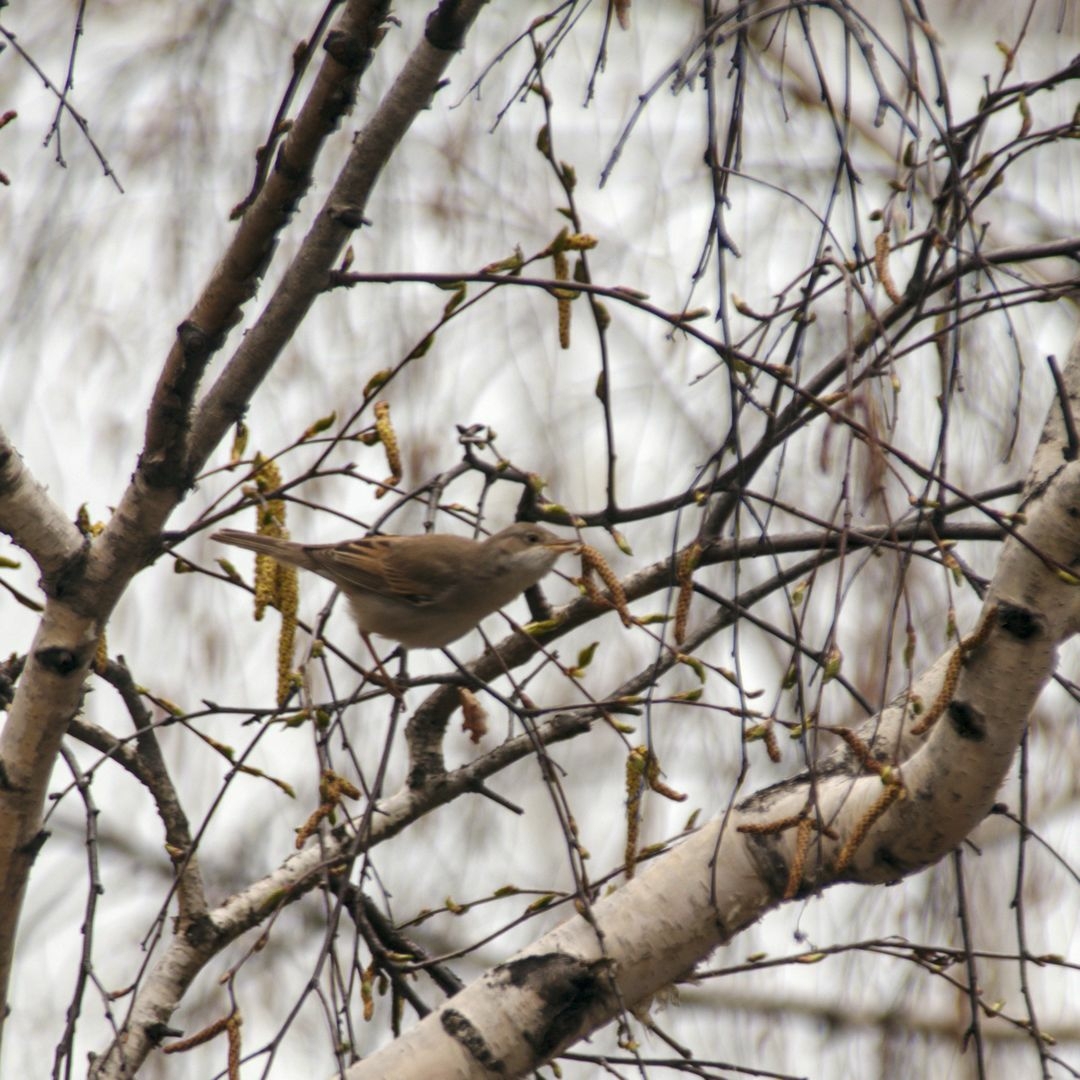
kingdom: Animalia
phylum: Chordata
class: Aves
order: Passeriformes
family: Sylviidae
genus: Sylvia
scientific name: Sylvia communis
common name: Common whitethroat
